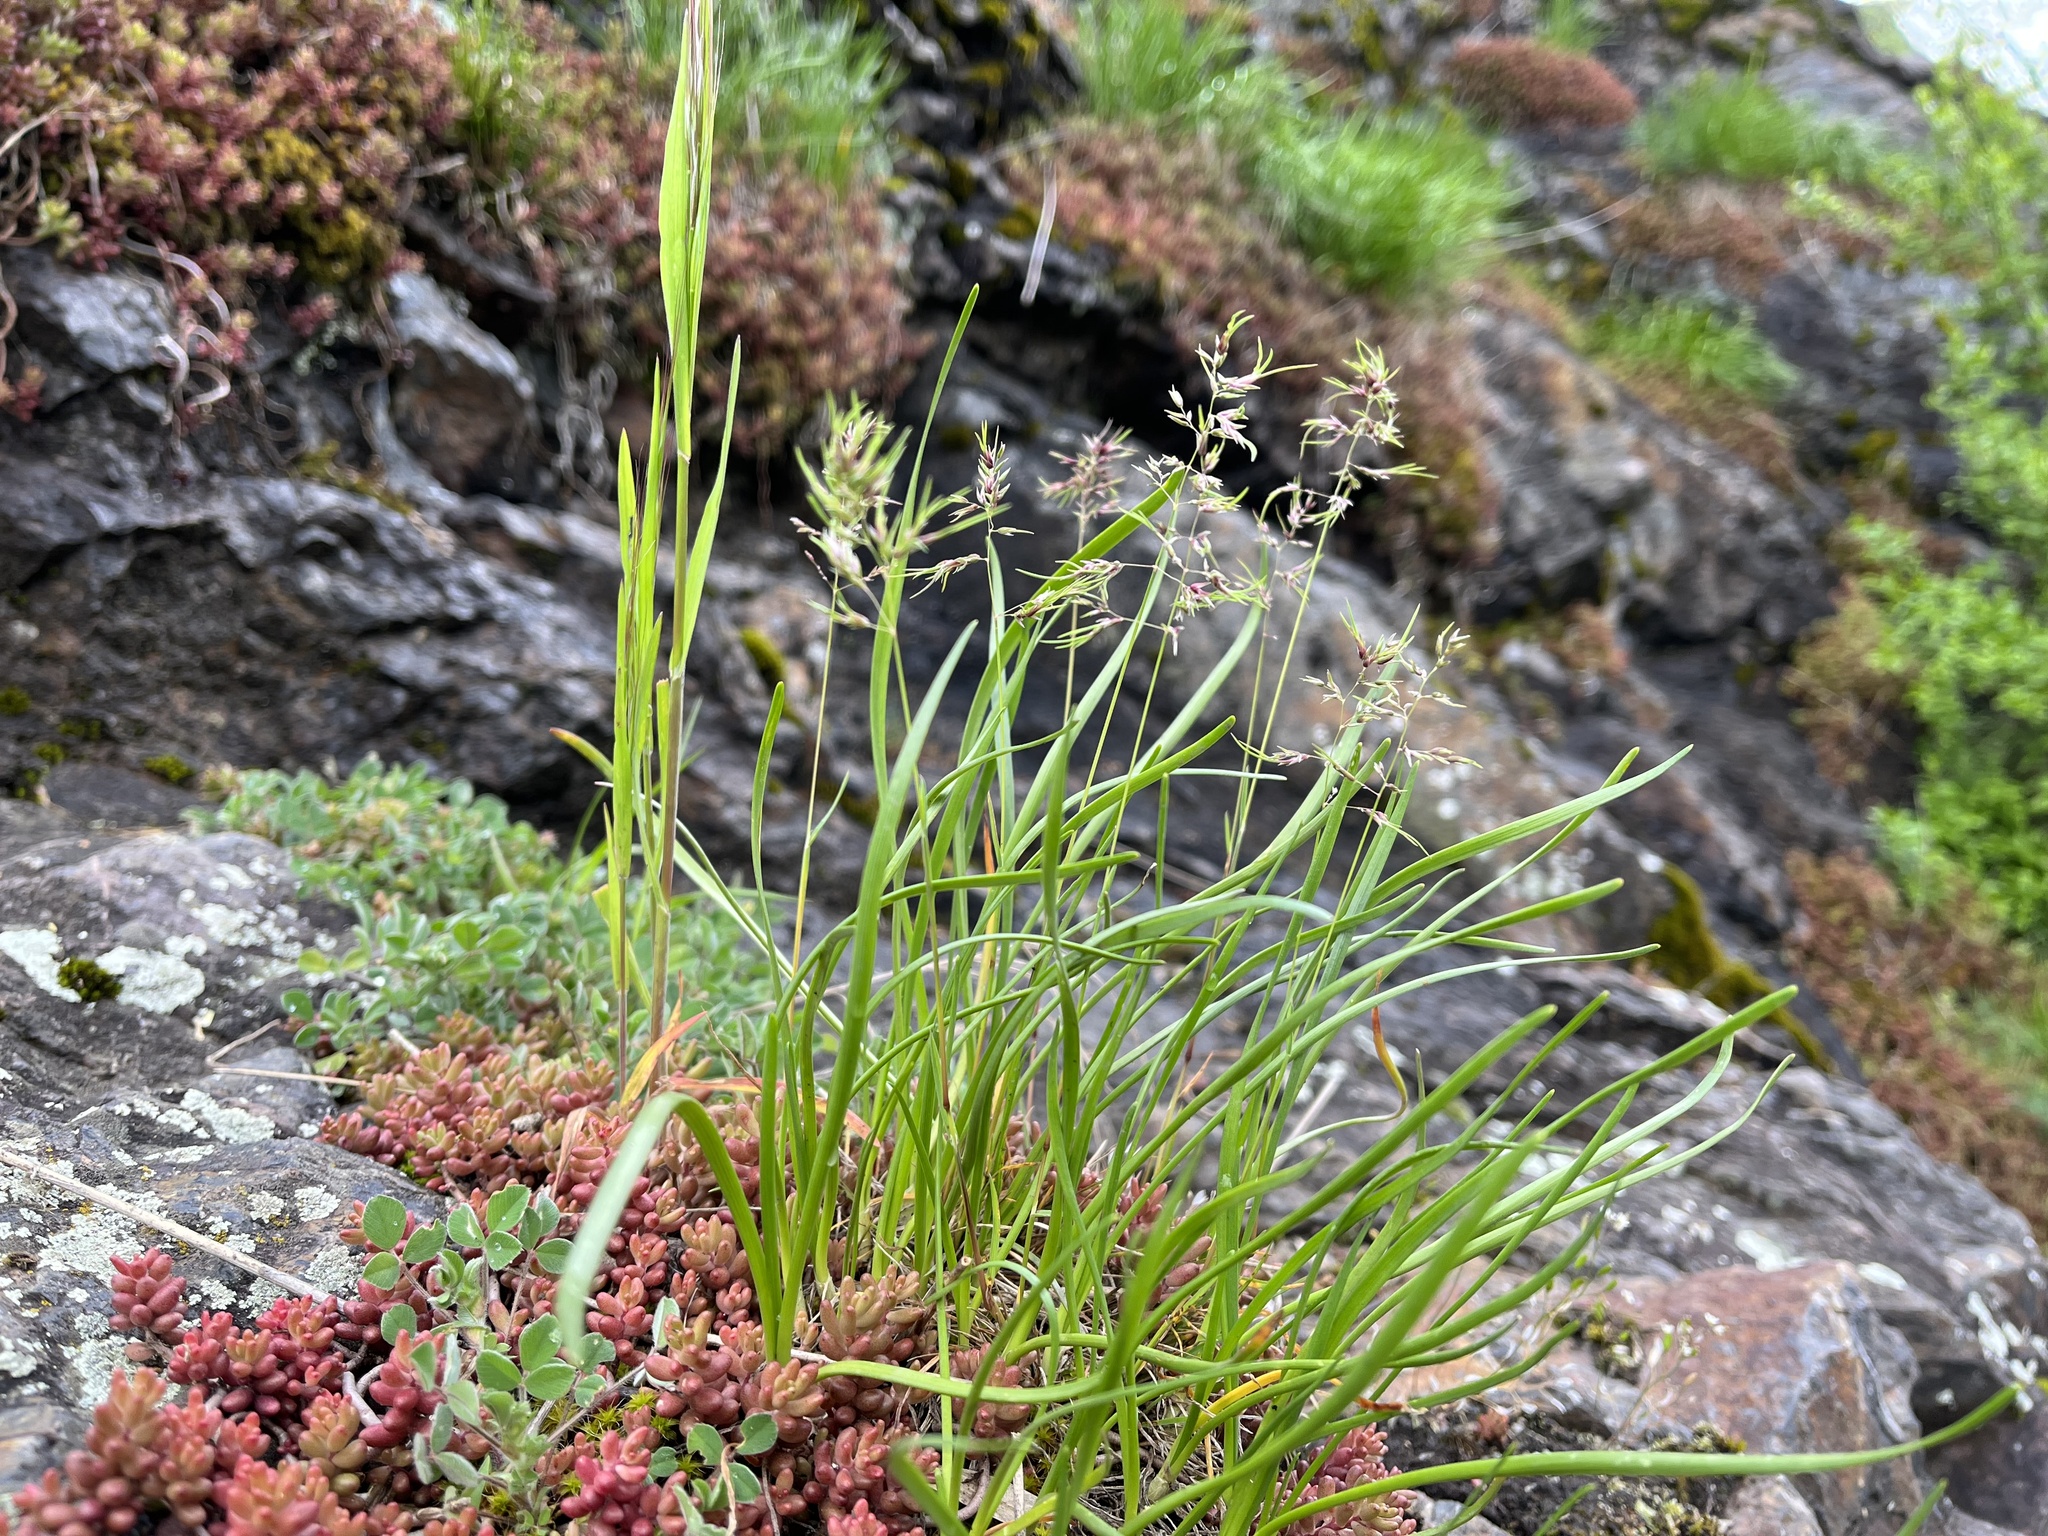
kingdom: Plantae
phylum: Tracheophyta
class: Liliopsida
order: Poales
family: Poaceae
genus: Poa
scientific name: Poa bulbosa
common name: Bulbous bluegrass
